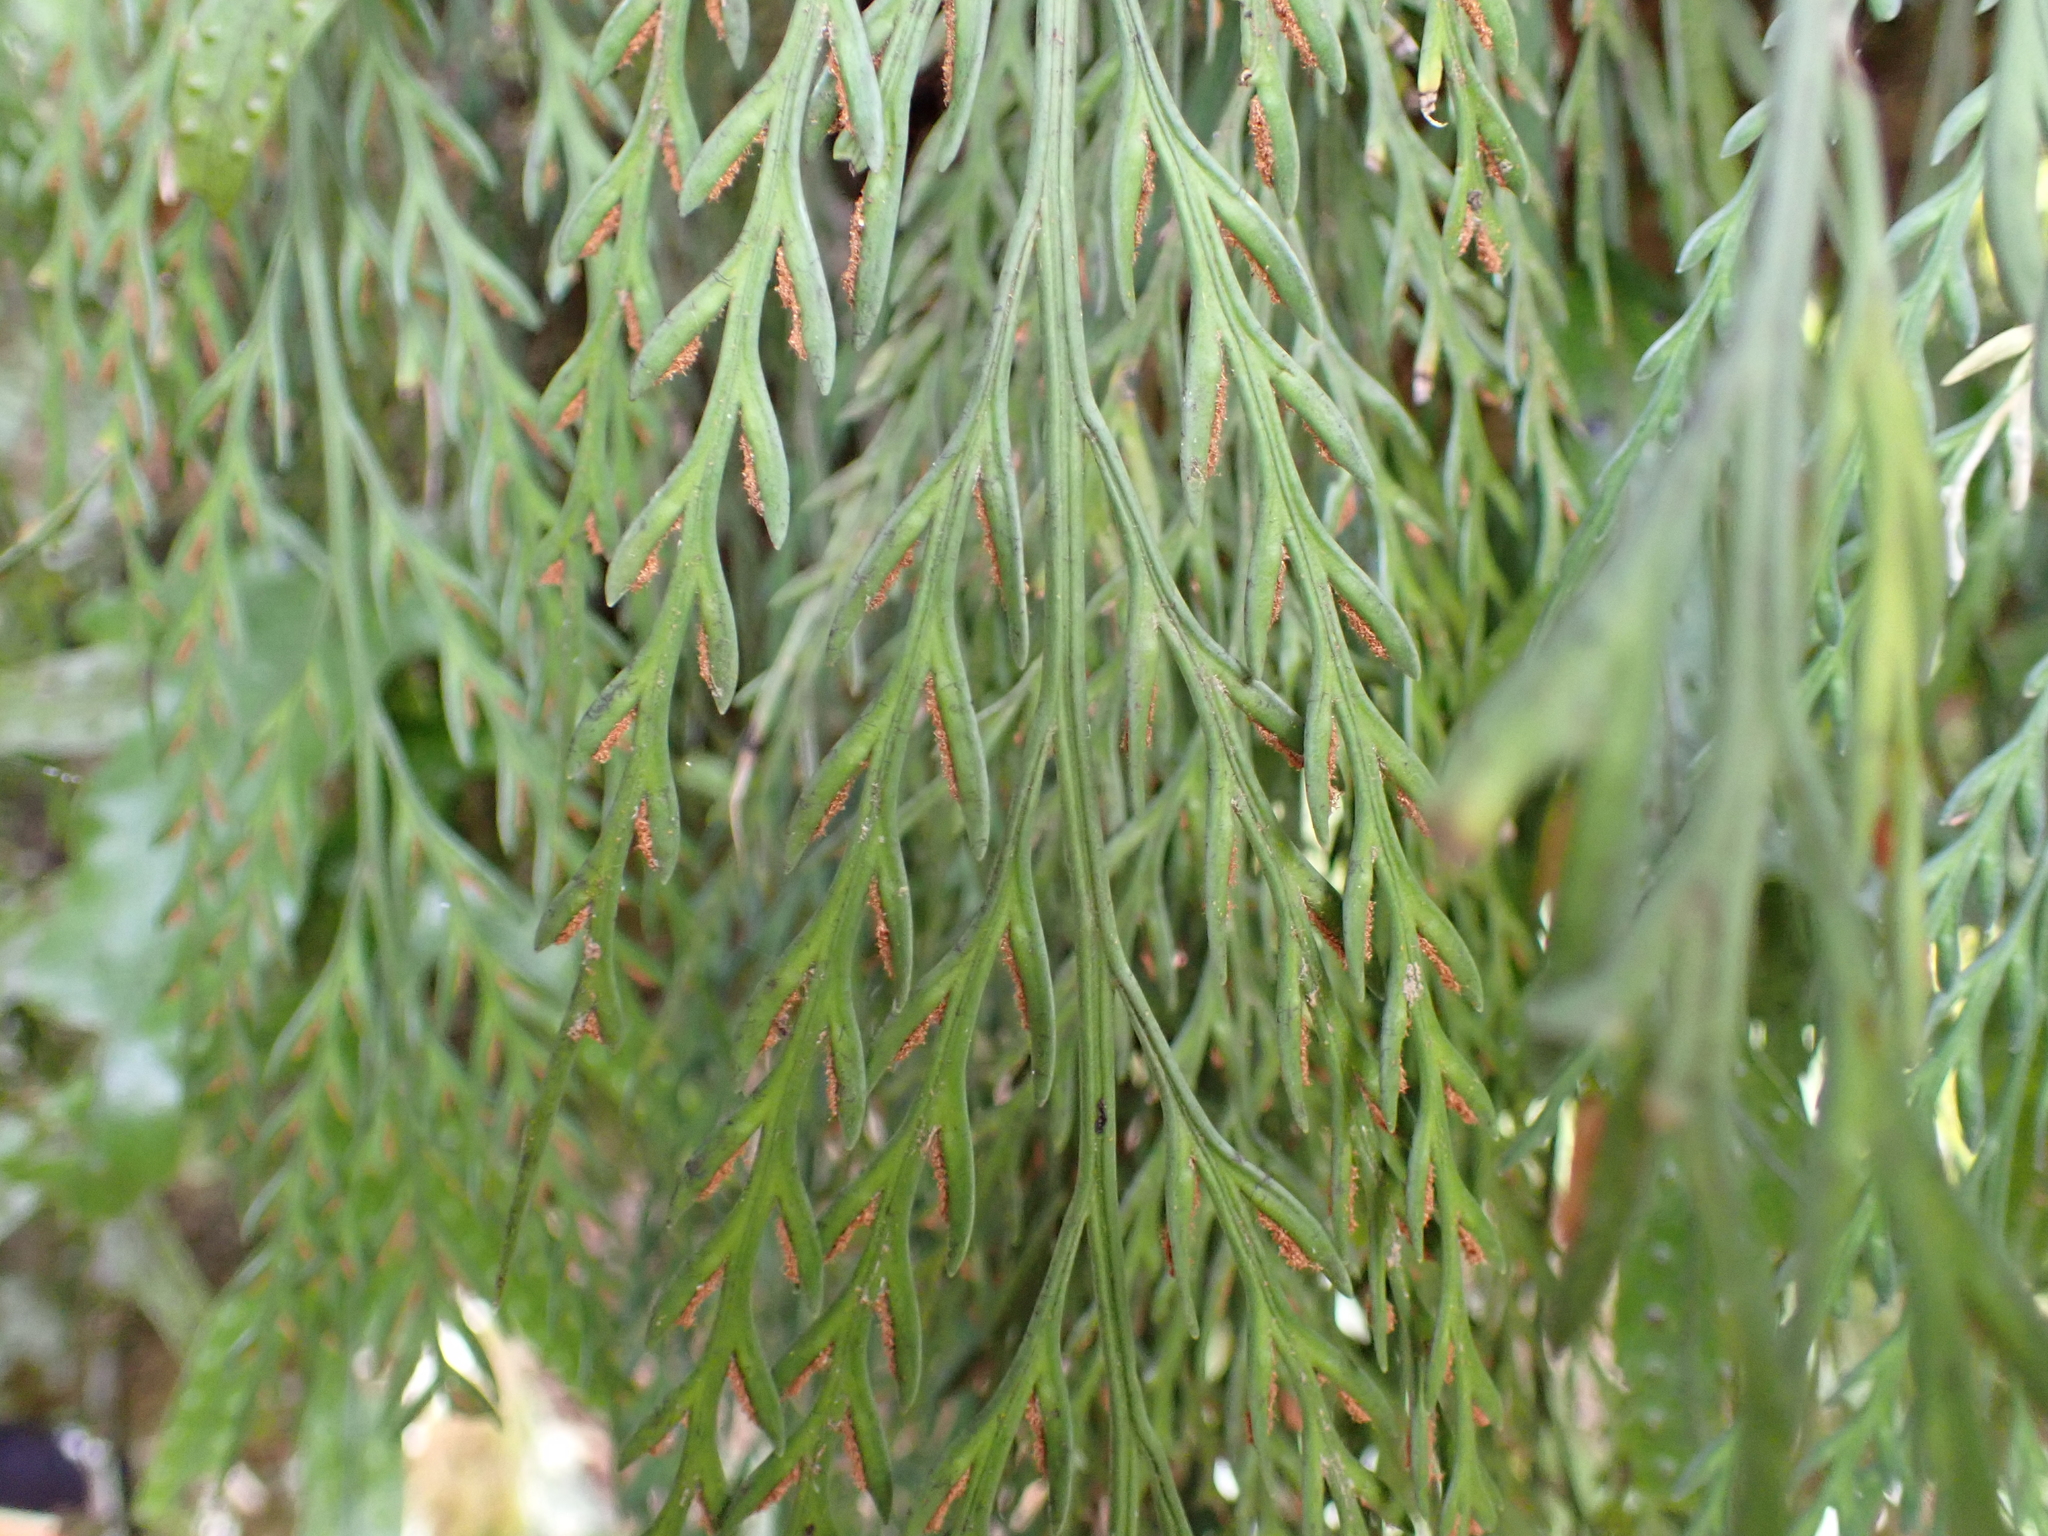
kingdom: Plantae
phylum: Tracheophyta
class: Polypodiopsida
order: Polypodiales
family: Aspleniaceae
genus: Asplenium
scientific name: Asplenium flaccidum
